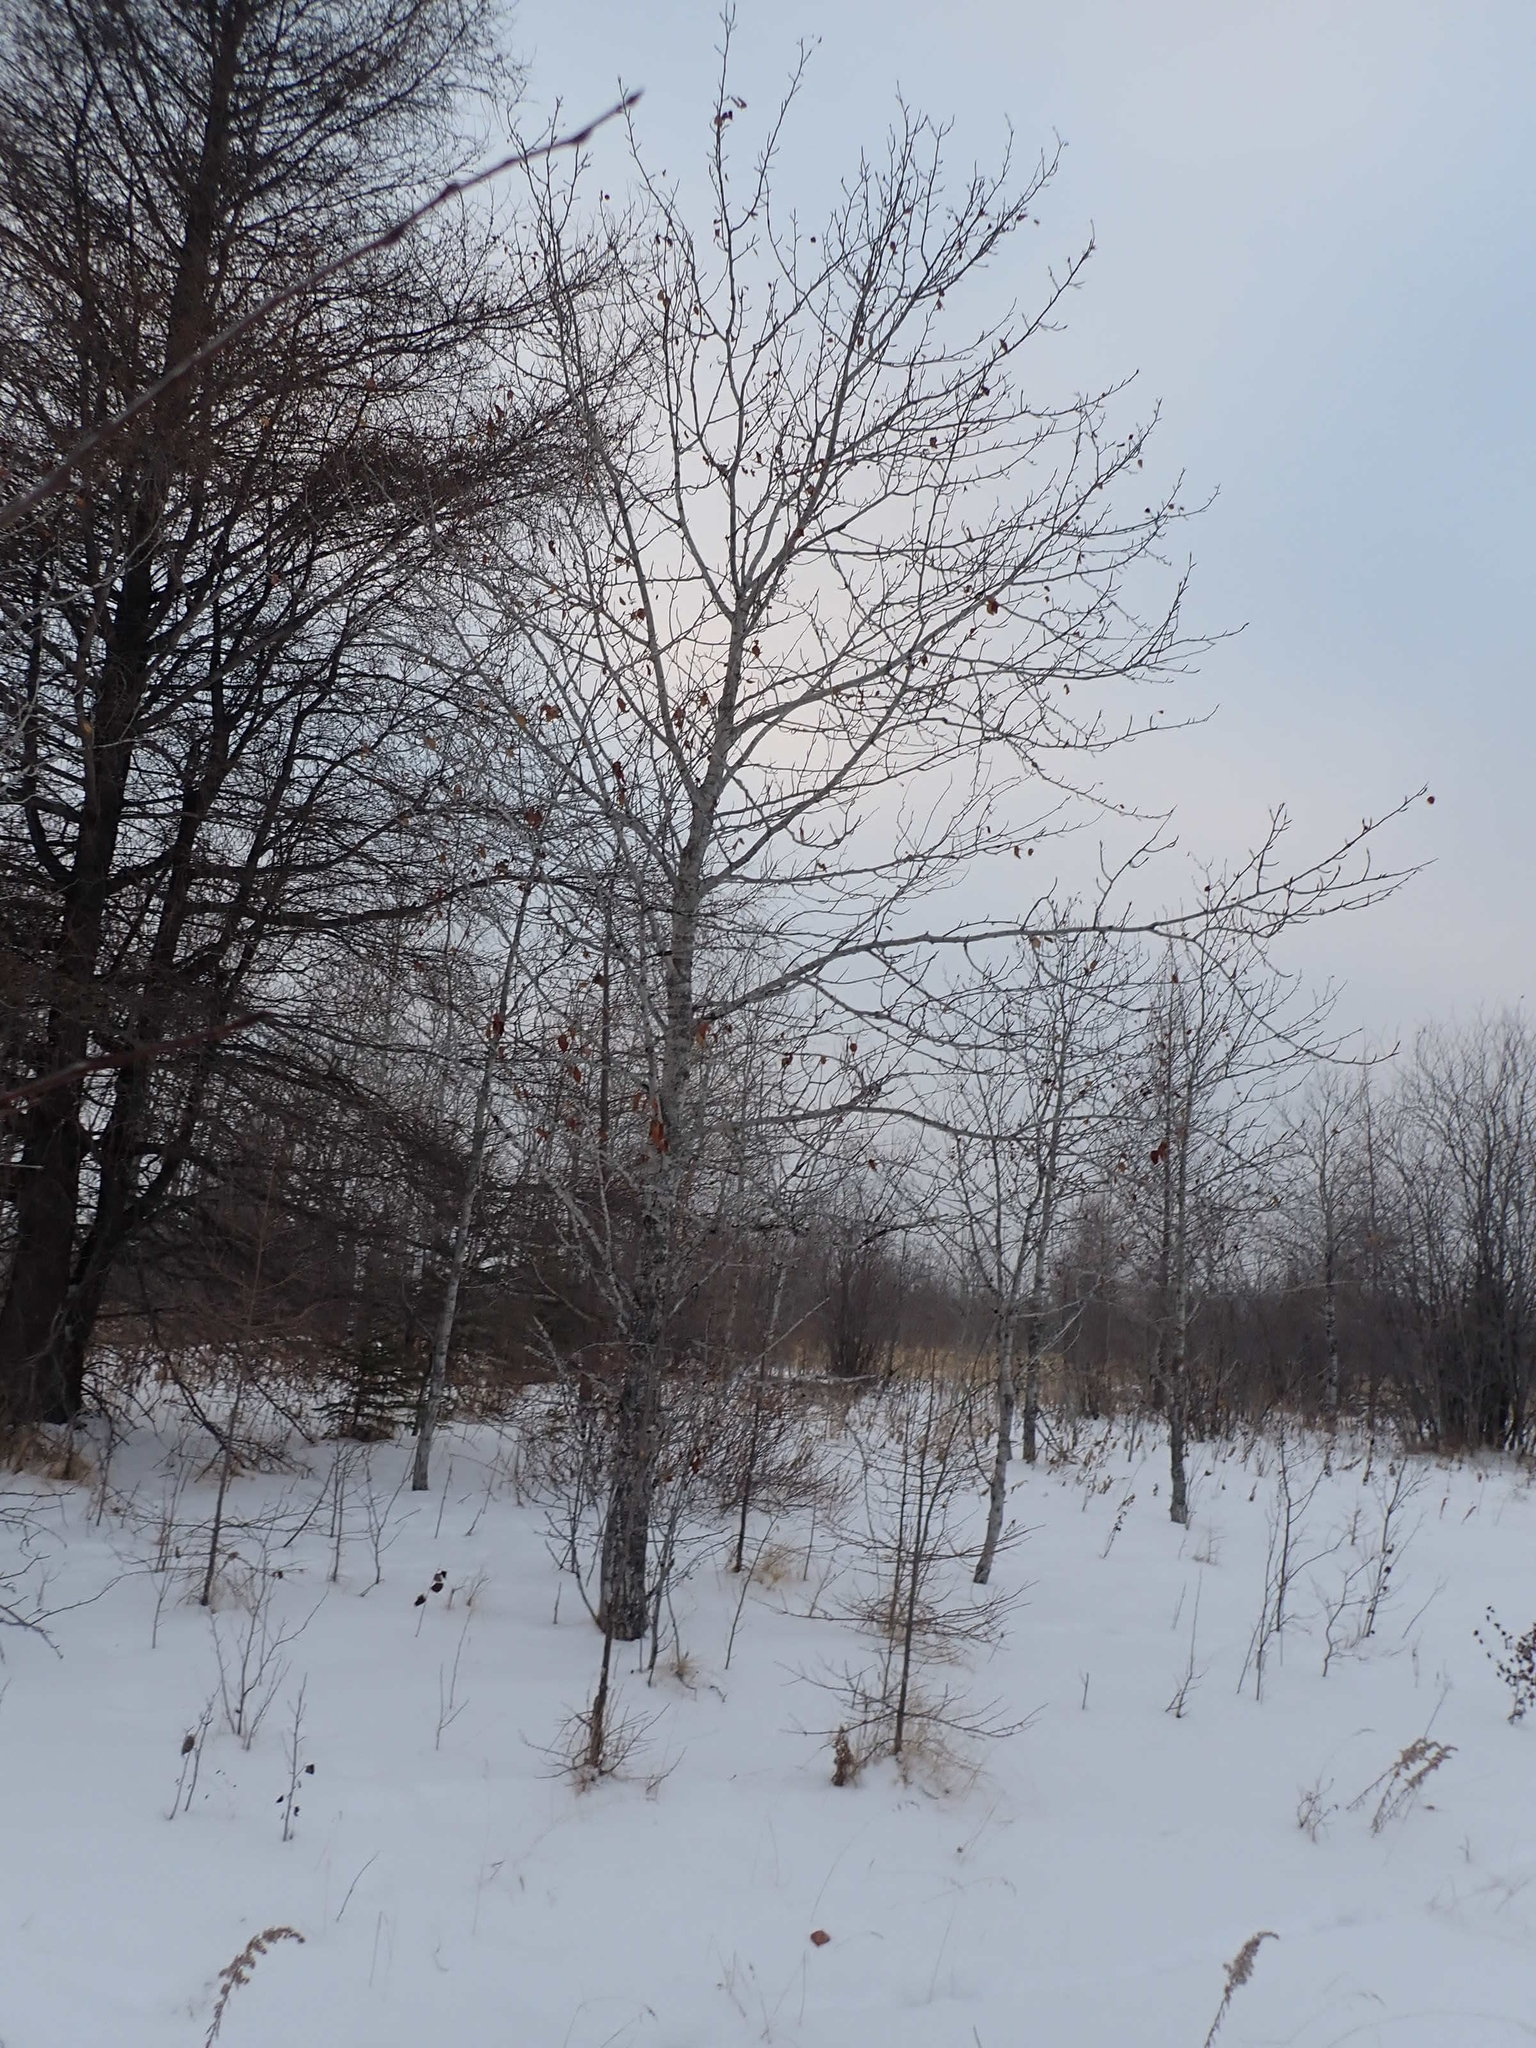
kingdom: Plantae
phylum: Tracheophyta
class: Magnoliopsida
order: Malpighiales
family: Salicaceae
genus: Populus
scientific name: Populus balsamifera
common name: Balsam poplar
